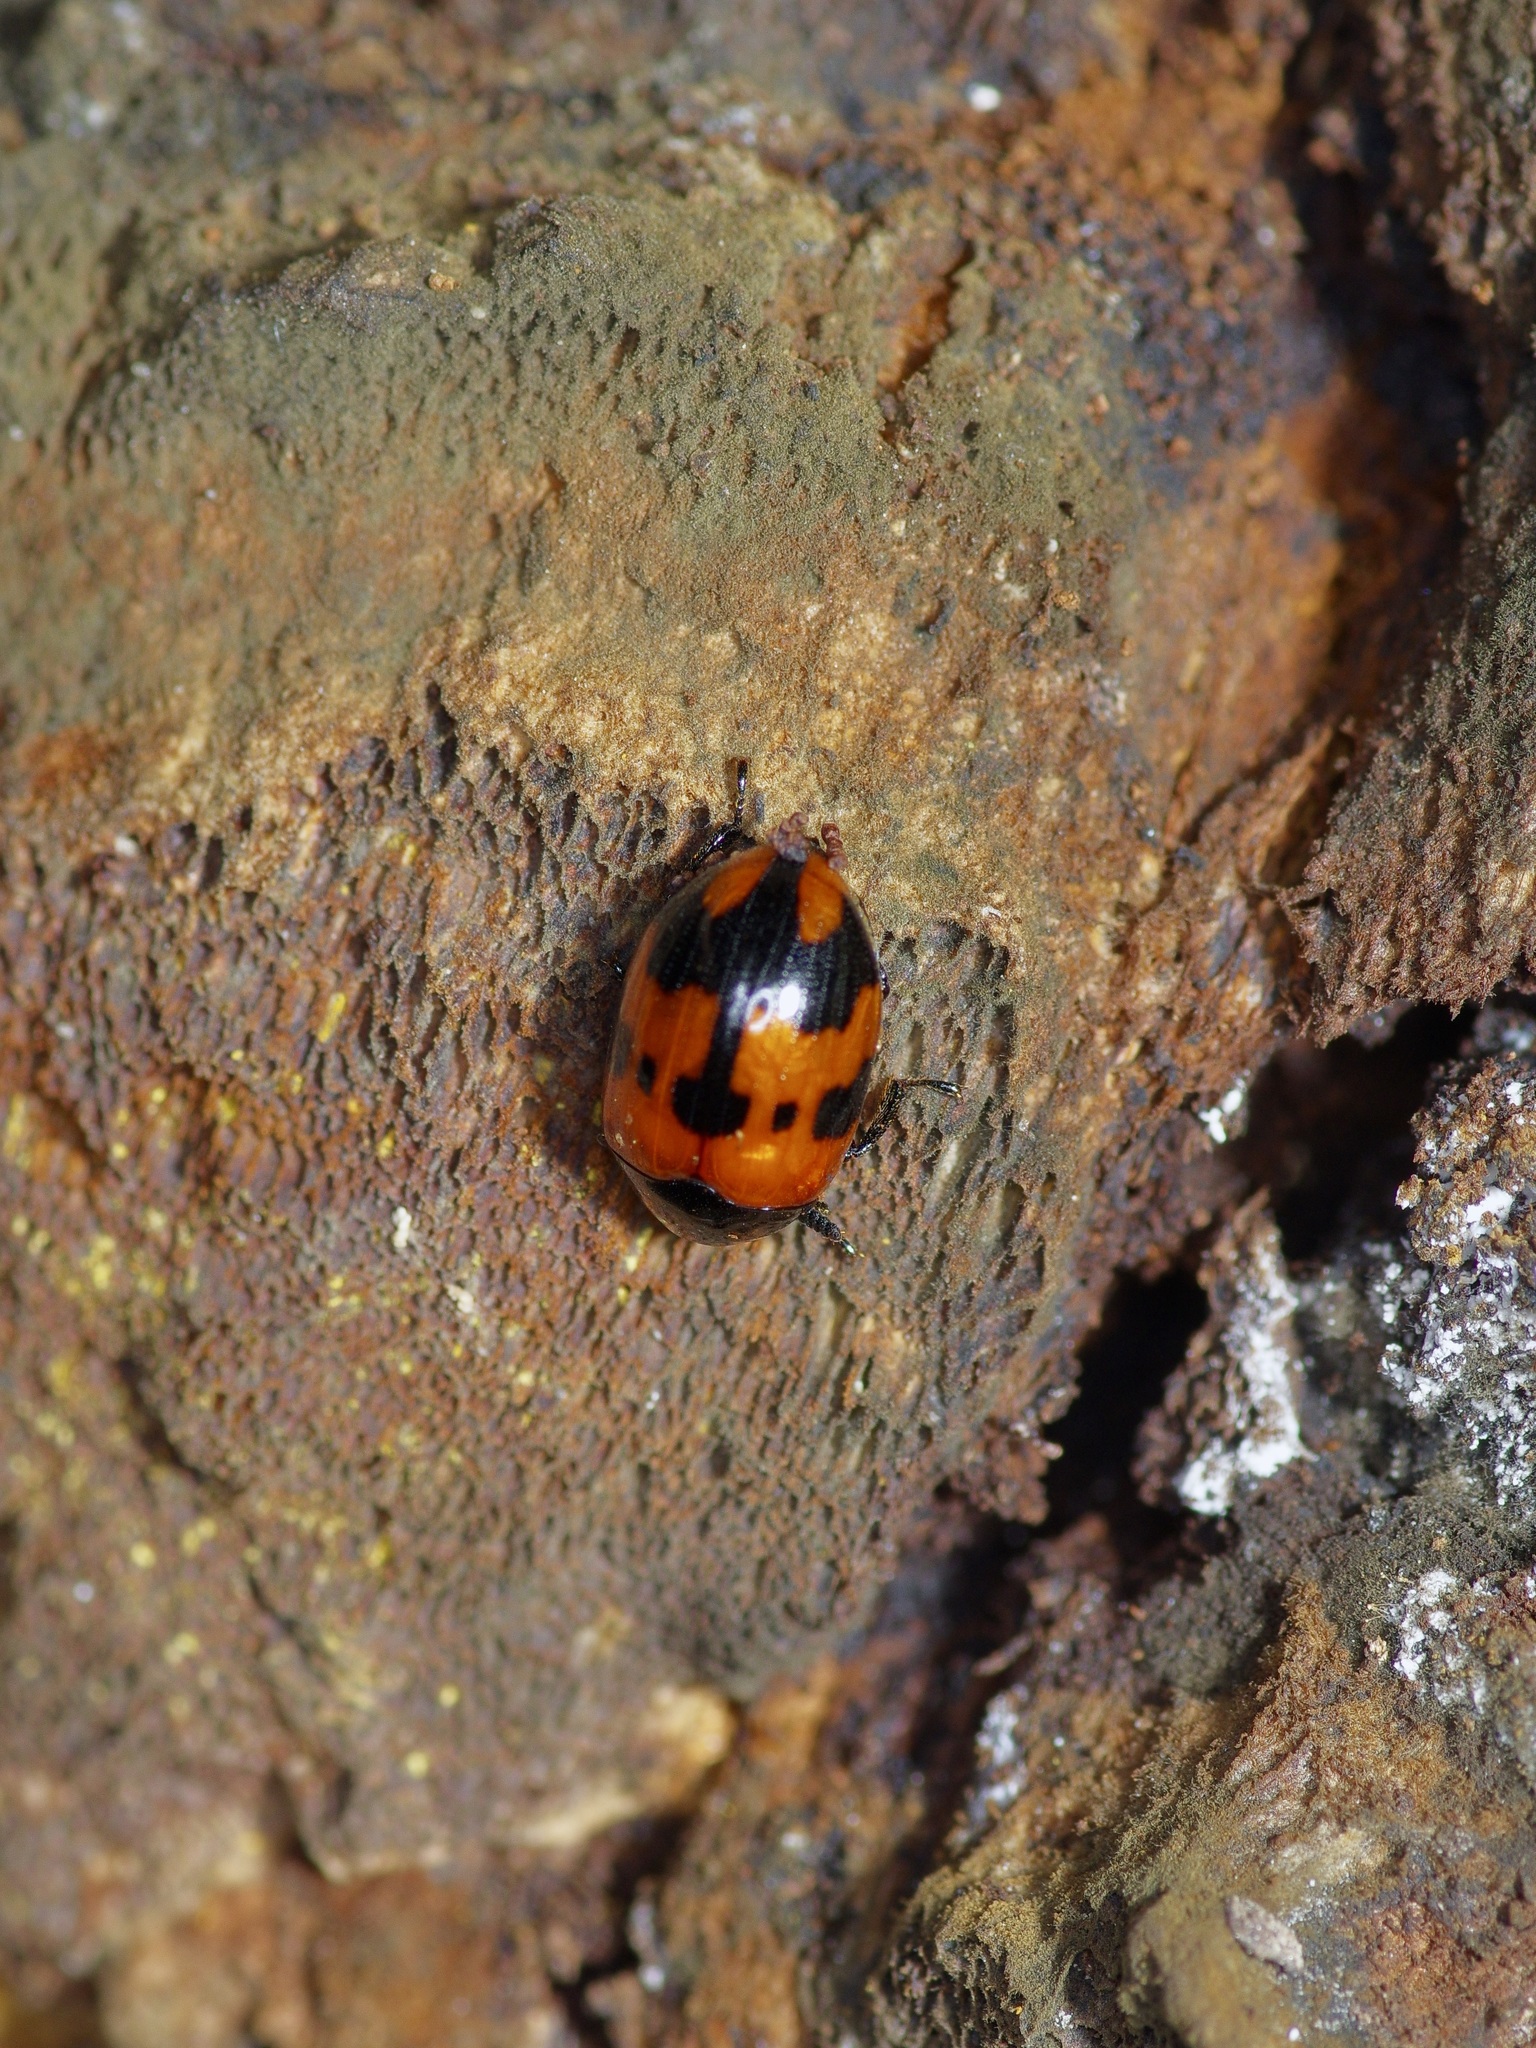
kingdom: Animalia
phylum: Arthropoda
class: Insecta
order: Coleoptera
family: Tenebrionidae
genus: Diaperis
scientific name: Diaperis nigronotata
